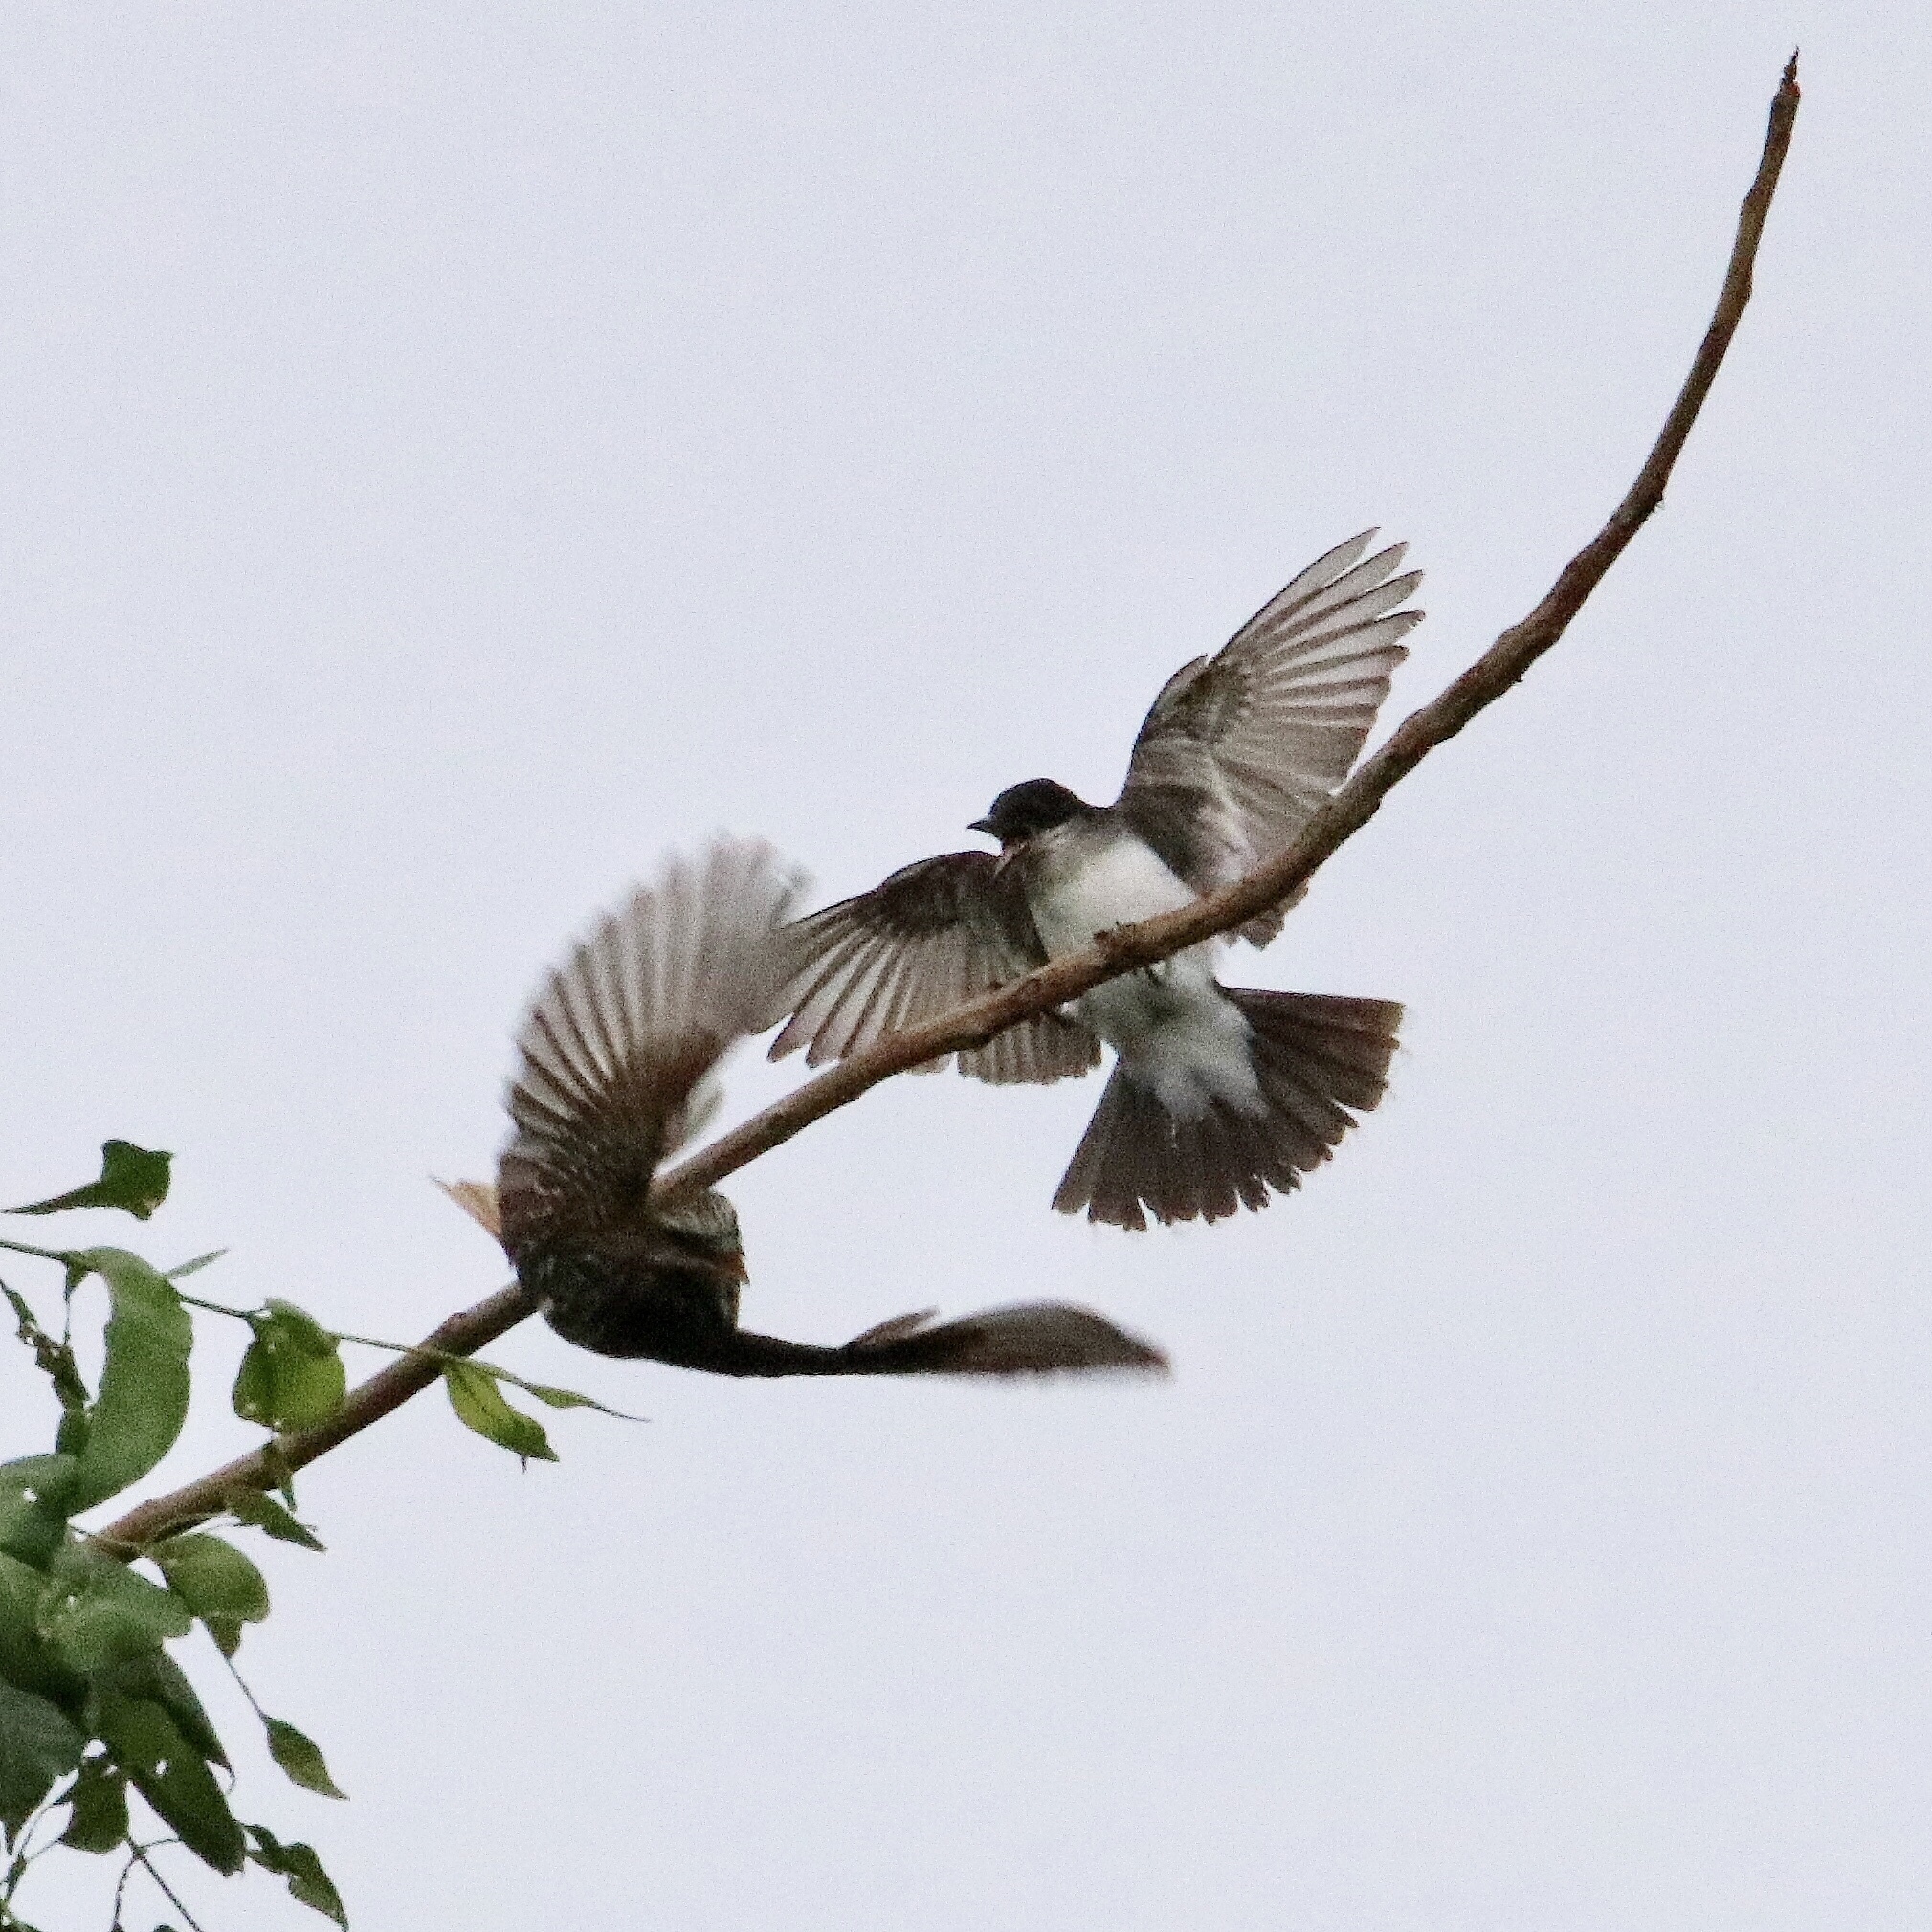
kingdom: Animalia
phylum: Chordata
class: Aves
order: Passeriformes
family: Tyrannidae
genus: Tyrannus
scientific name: Tyrannus tyrannus
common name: Eastern kingbird
